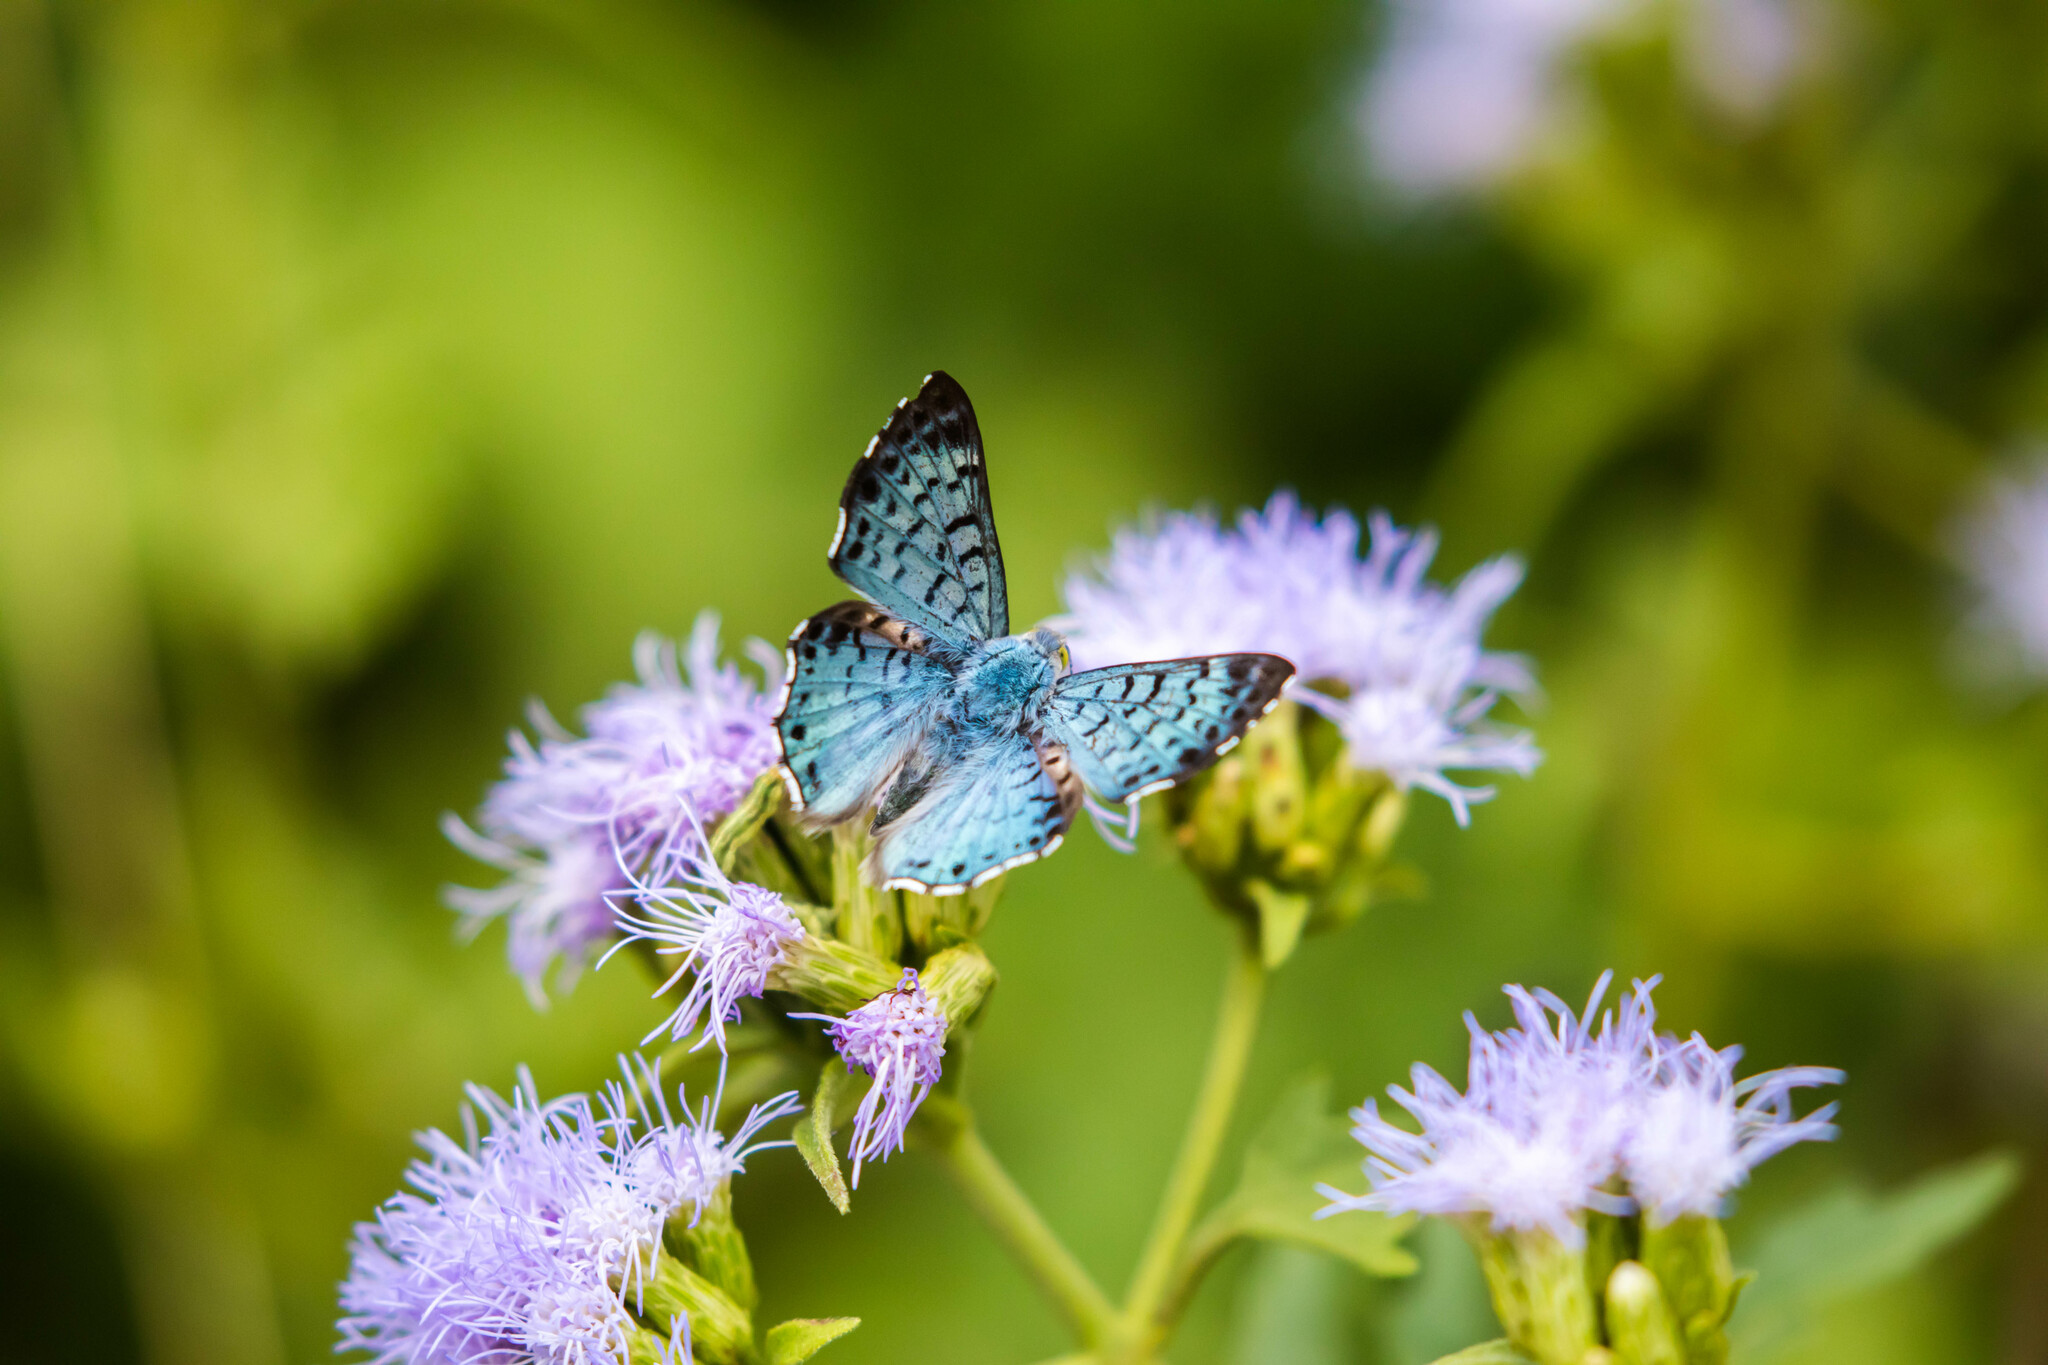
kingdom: Animalia
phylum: Arthropoda
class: Insecta
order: Lepidoptera
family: Riodinidae
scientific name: Riodinidae
